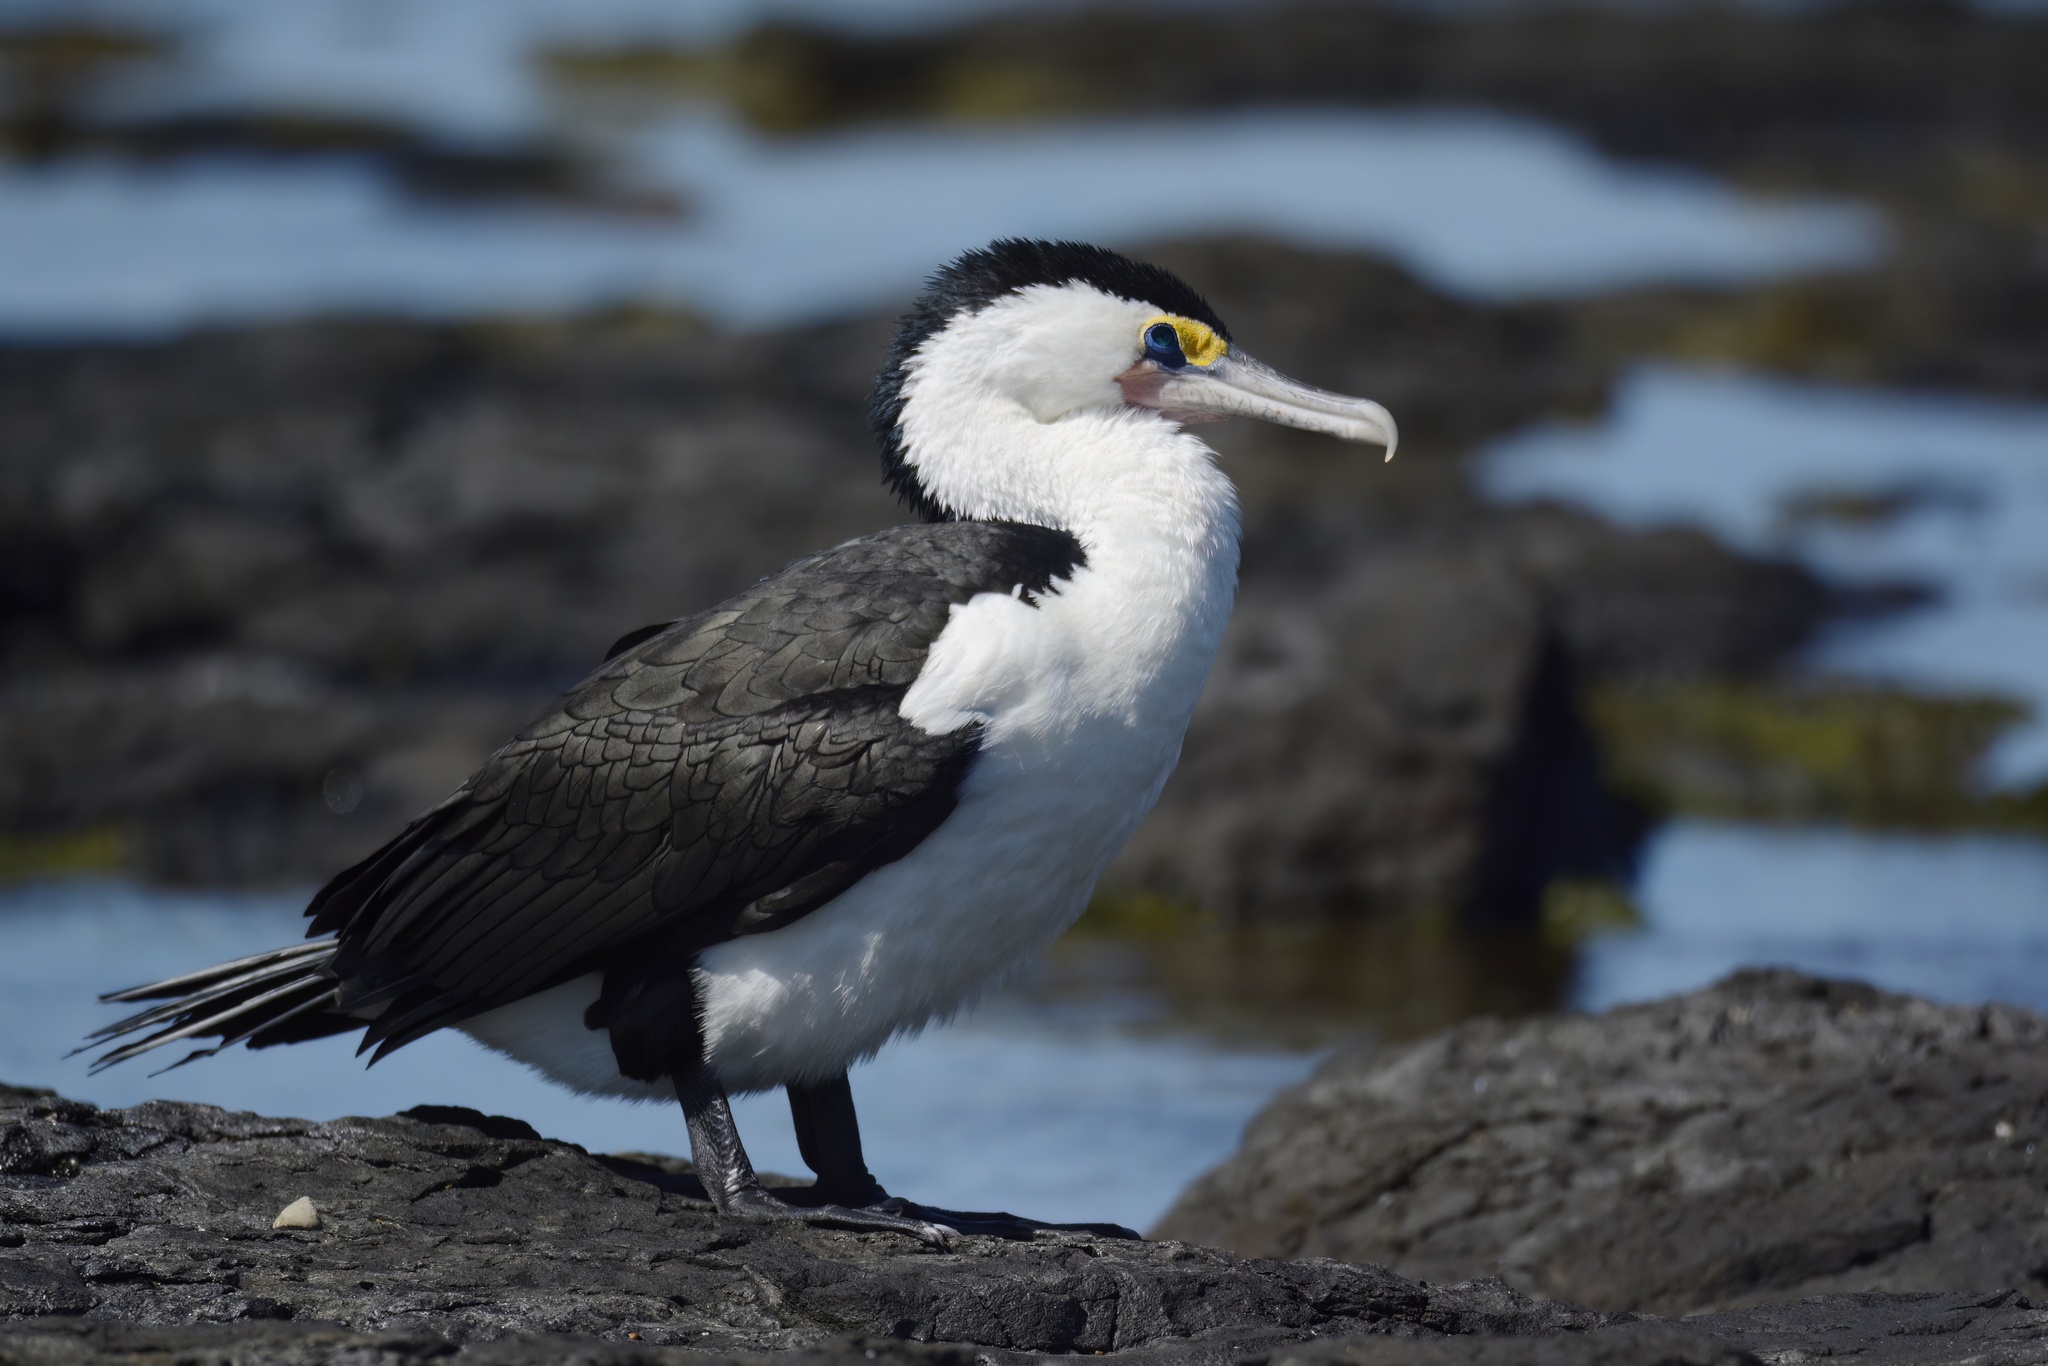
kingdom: Animalia
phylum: Chordata
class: Aves
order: Suliformes
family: Phalacrocoracidae
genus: Phalacrocorax
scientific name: Phalacrocorax varius
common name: Pied cormorant
